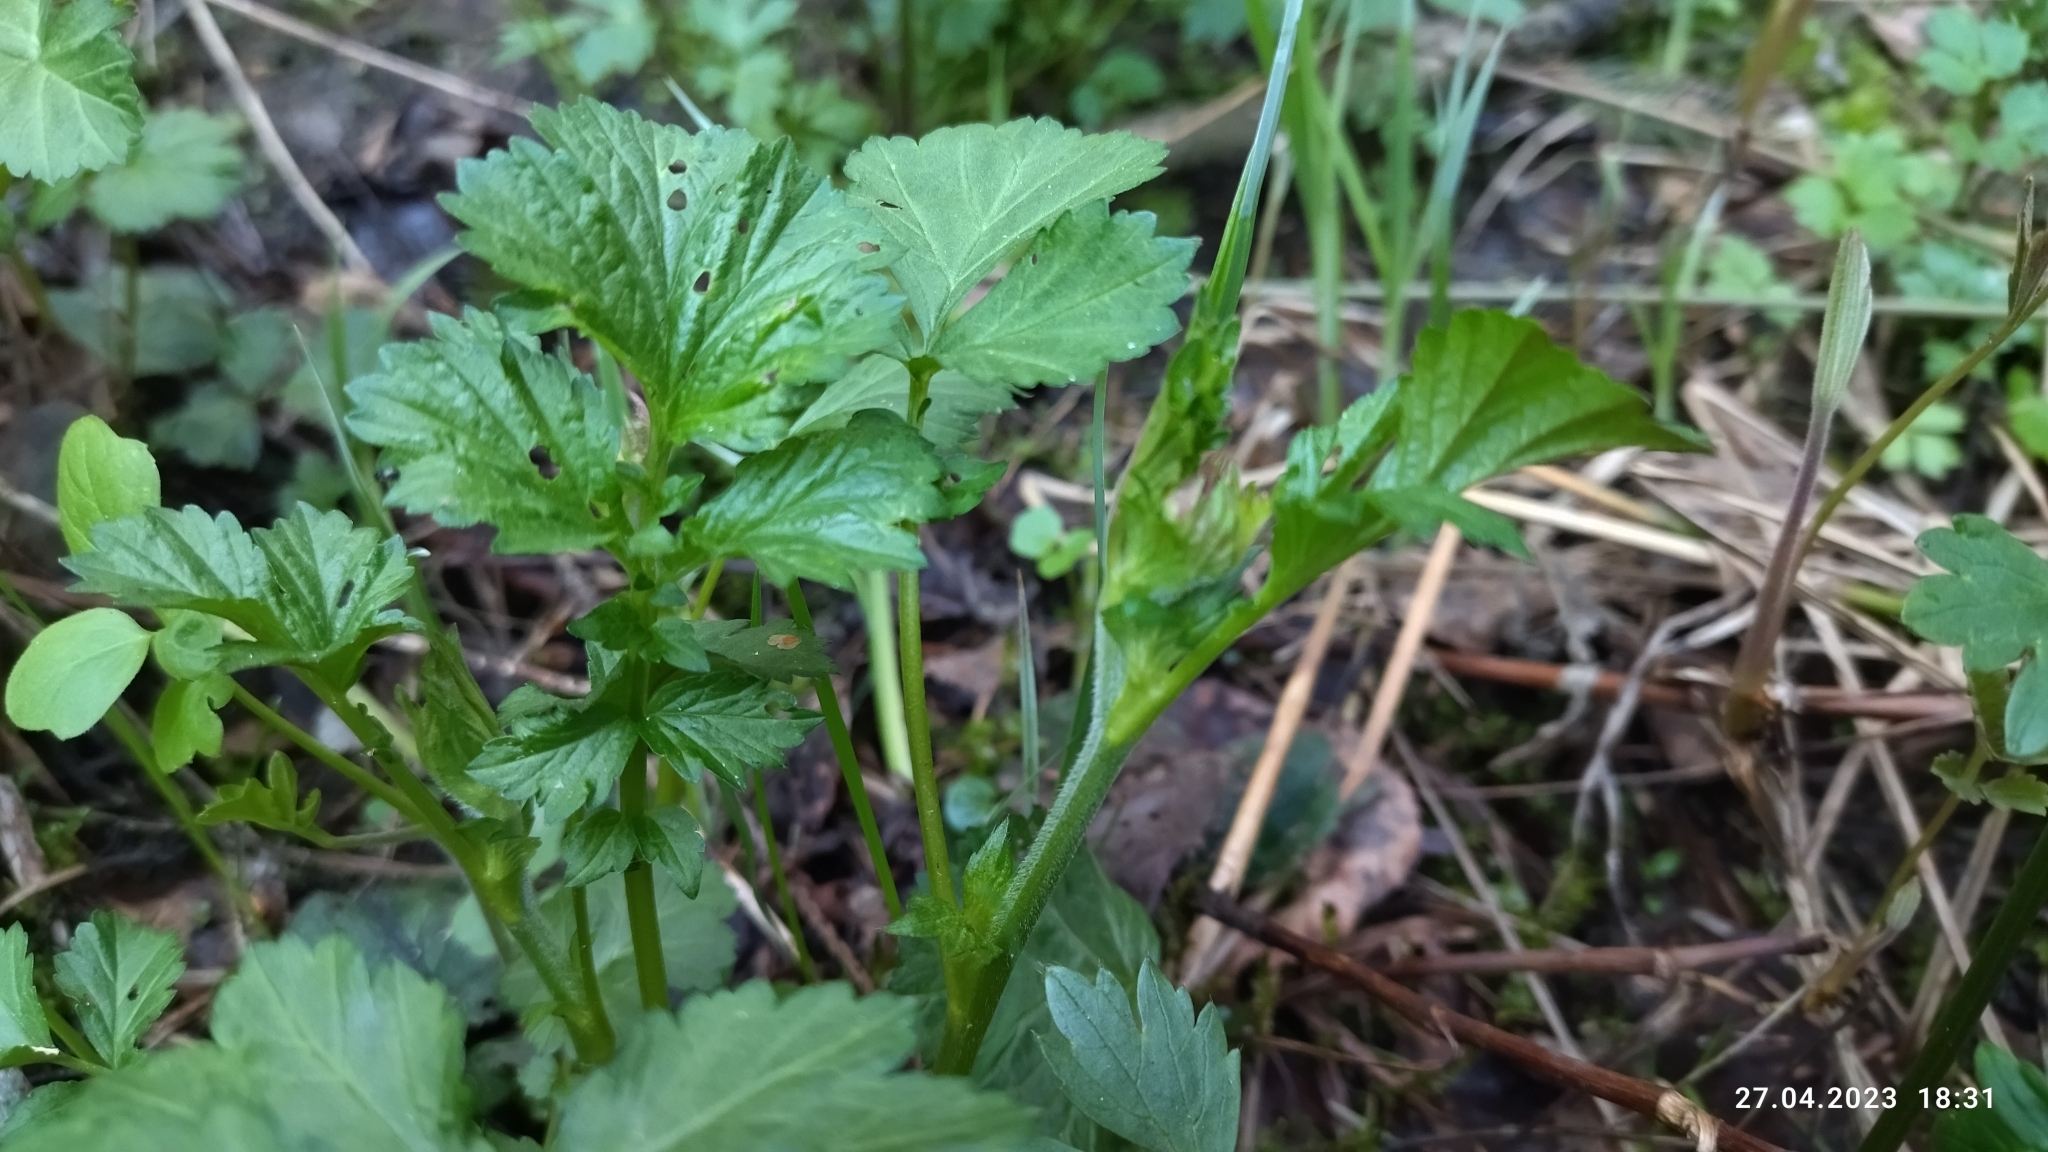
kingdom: Plantae
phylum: Tracheophyta
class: Magnoliopsida
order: Rosales
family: Rosaceae
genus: Geum
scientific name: Geum rivale
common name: Water avens
